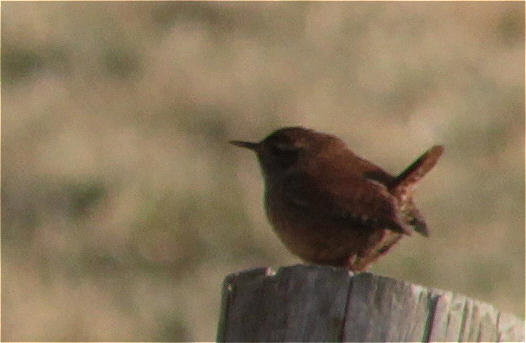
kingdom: Animalia
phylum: Chordata
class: Aves
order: Passeriformes
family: Troglodytidae
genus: Troglodytes
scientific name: Troglodytes troglodytes
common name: Eurasian wren
